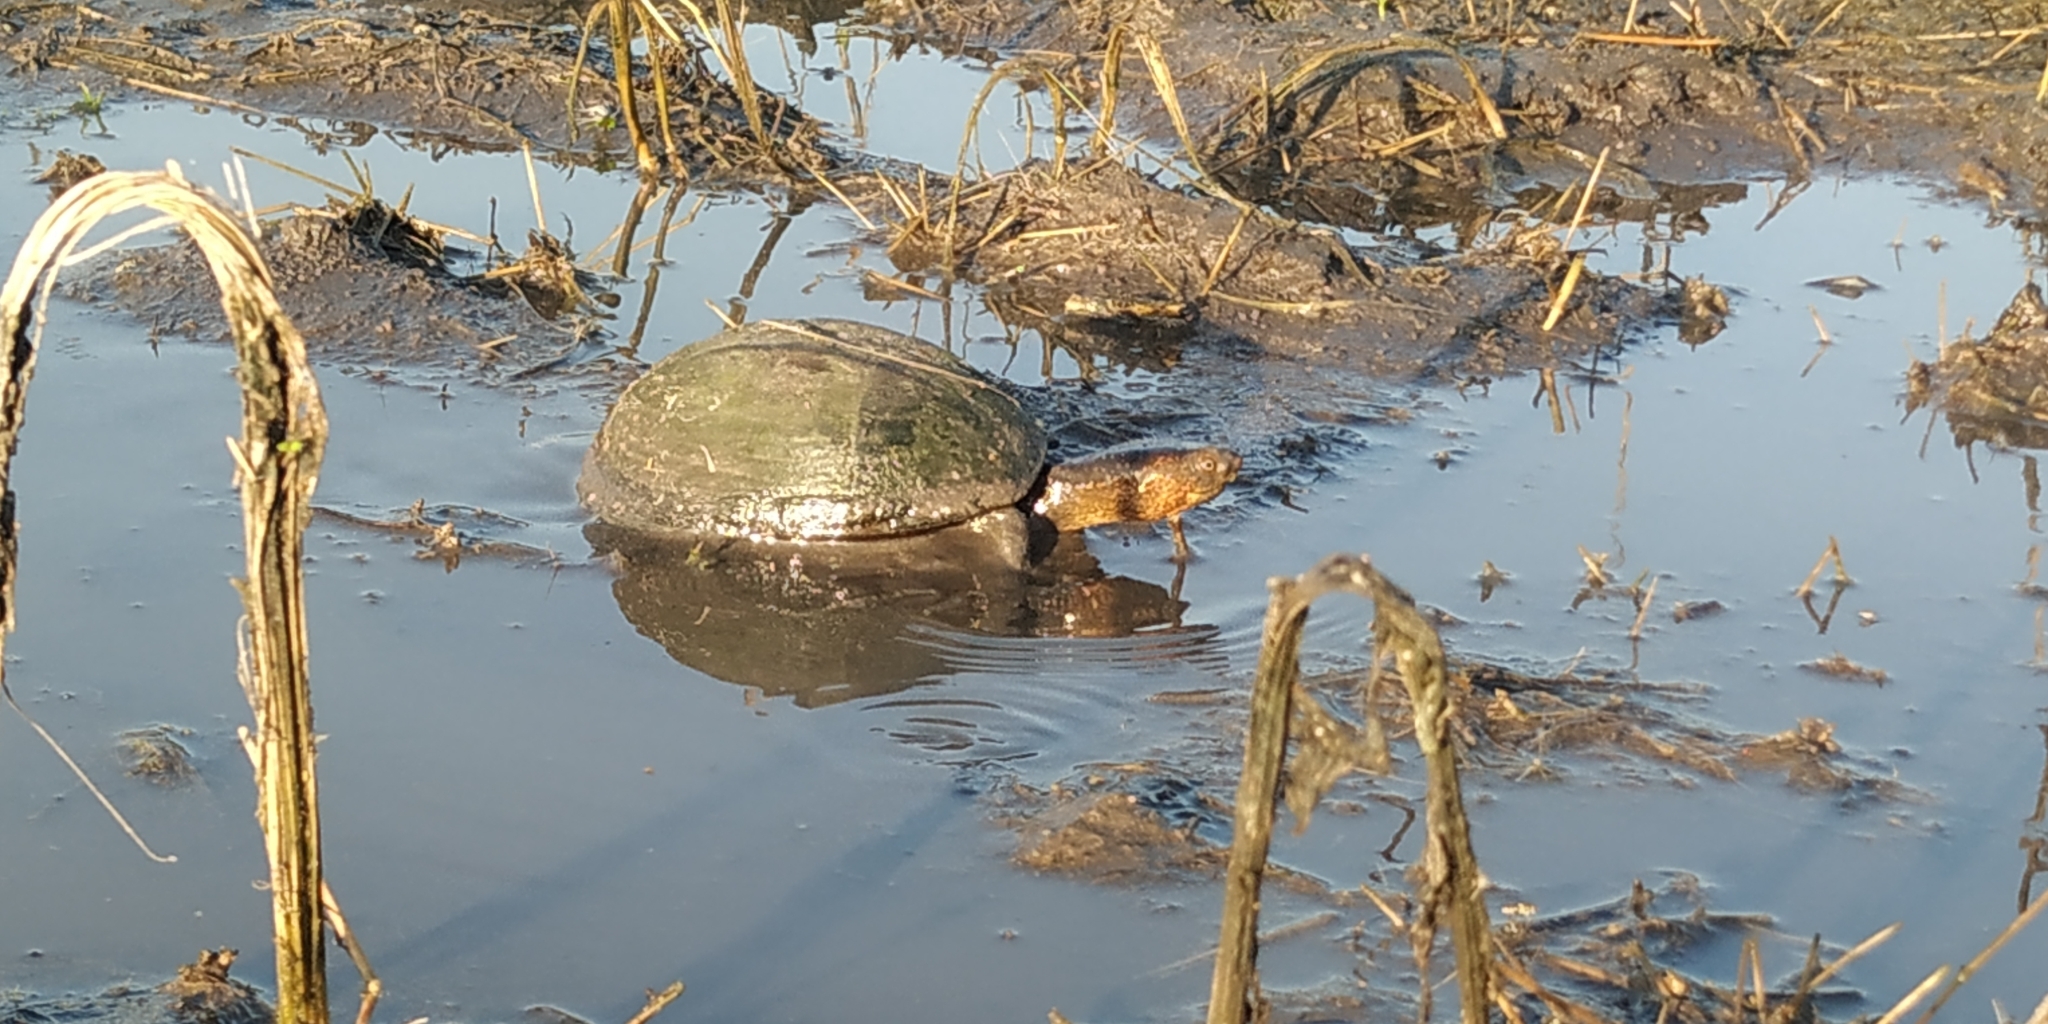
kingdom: Animalia
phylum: Chordata
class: Testudines
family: Kinosternidae
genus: Kinosternon
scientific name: Kinosternon scorpioides
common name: Scorpion mud turtle
